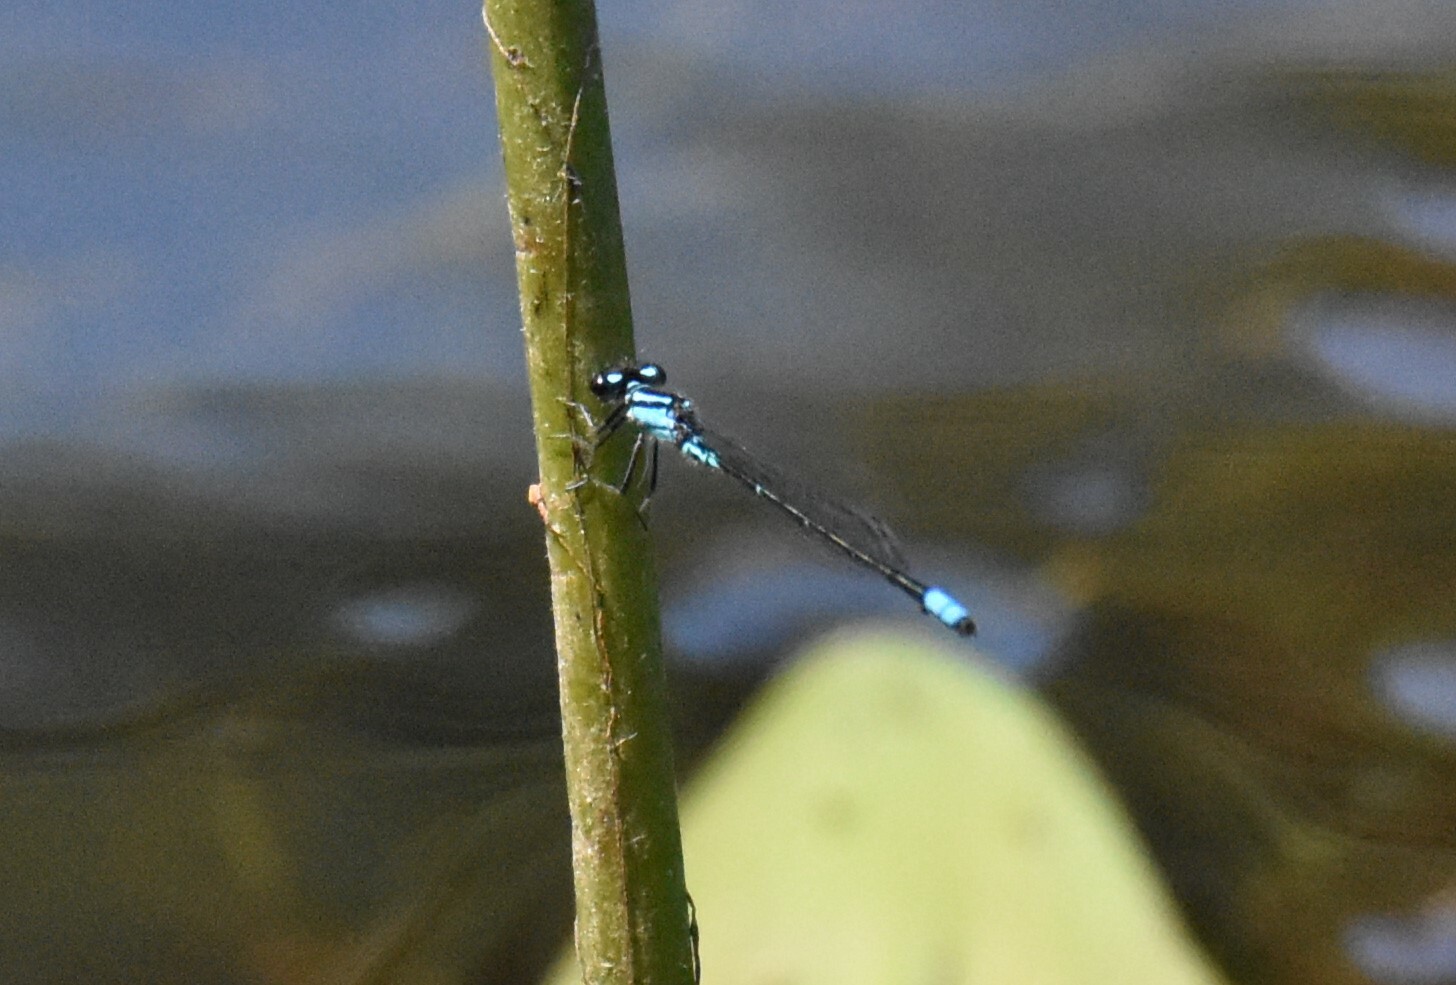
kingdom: Animalia
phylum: Arthropoda
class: Insecta
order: Odonata
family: Coenagrionidae
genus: Enallagma
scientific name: Enallagma geminatum
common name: Skimming bluet
